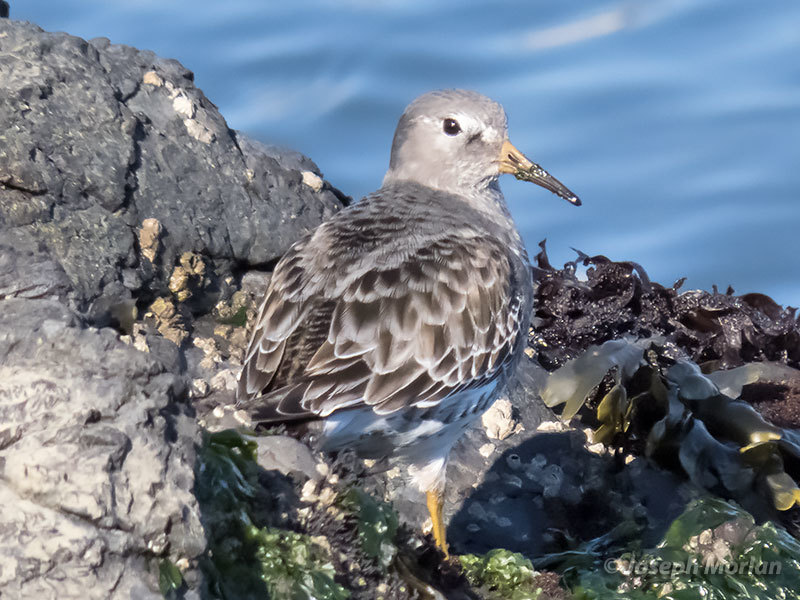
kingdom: Animalia
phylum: Chordata
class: Aves
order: Charadriiformes
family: Scolopacidae
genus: Calidris
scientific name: Calidris ptilocnemis
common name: Rock sandpiper
